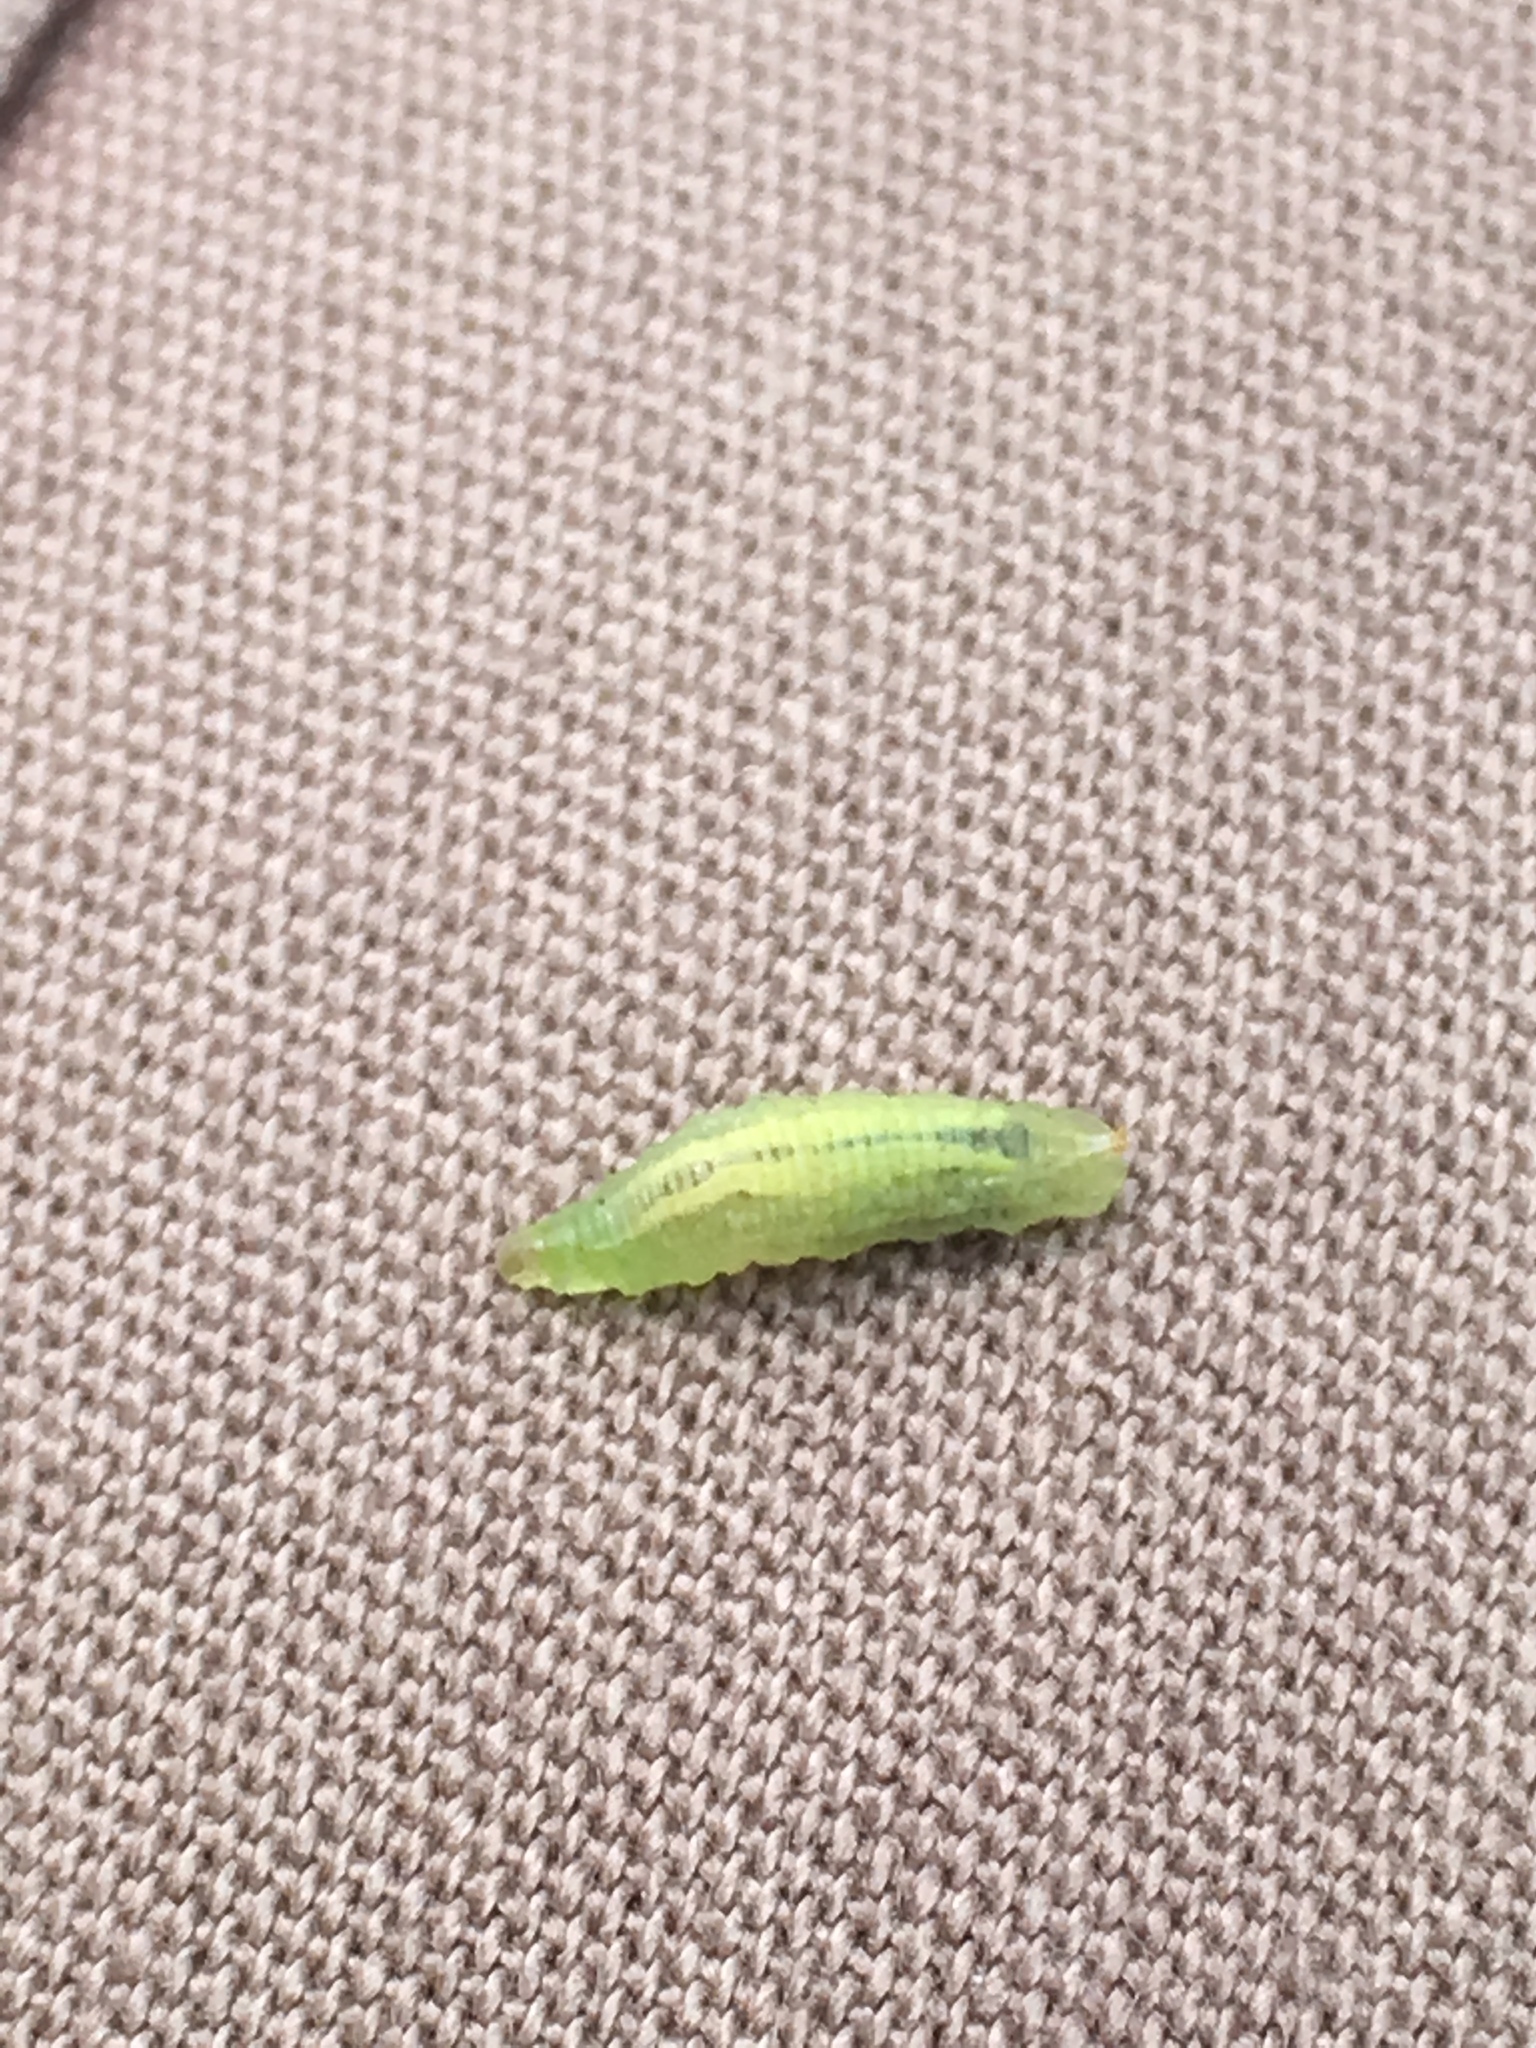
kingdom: Animalia
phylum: Arthropoda
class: Insecta
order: Diptera
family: Syrphidae
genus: Sphaerophoria
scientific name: Sphaerophoria
